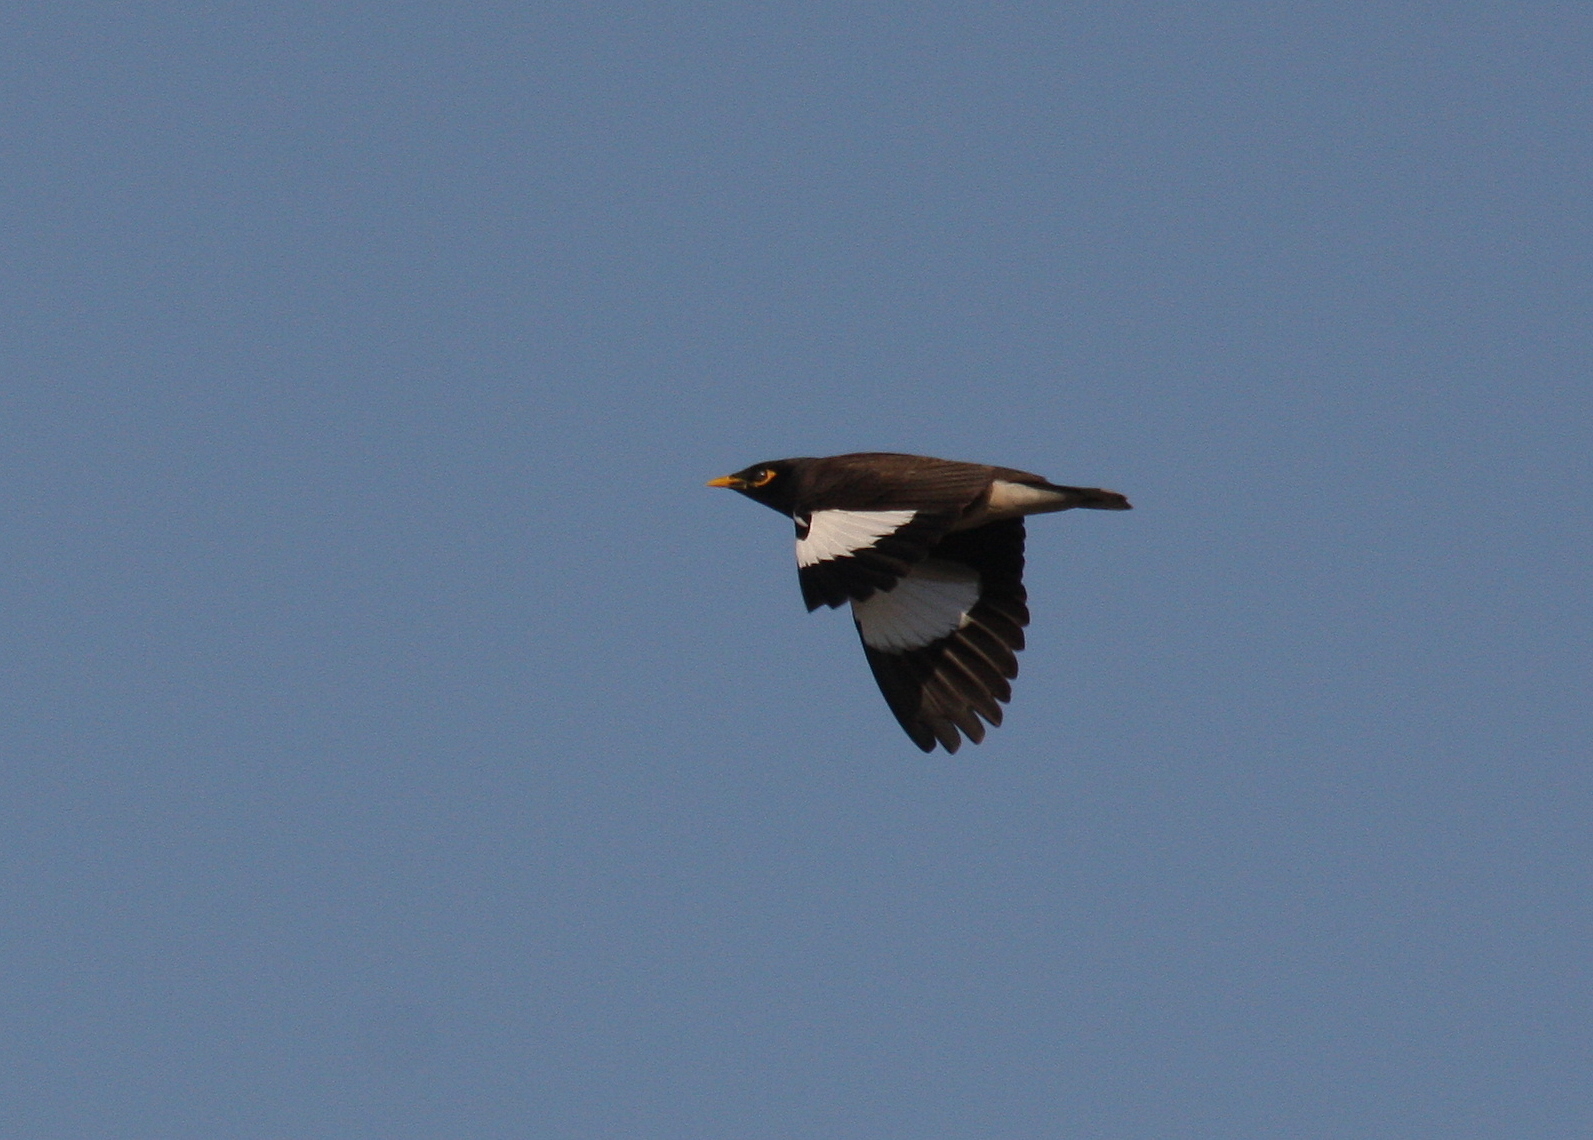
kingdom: Animalia
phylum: Chordata
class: Aves
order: Passeriformes
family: Sturnidae
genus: Acridotheres
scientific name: Acridotheres tristis
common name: Common myna
